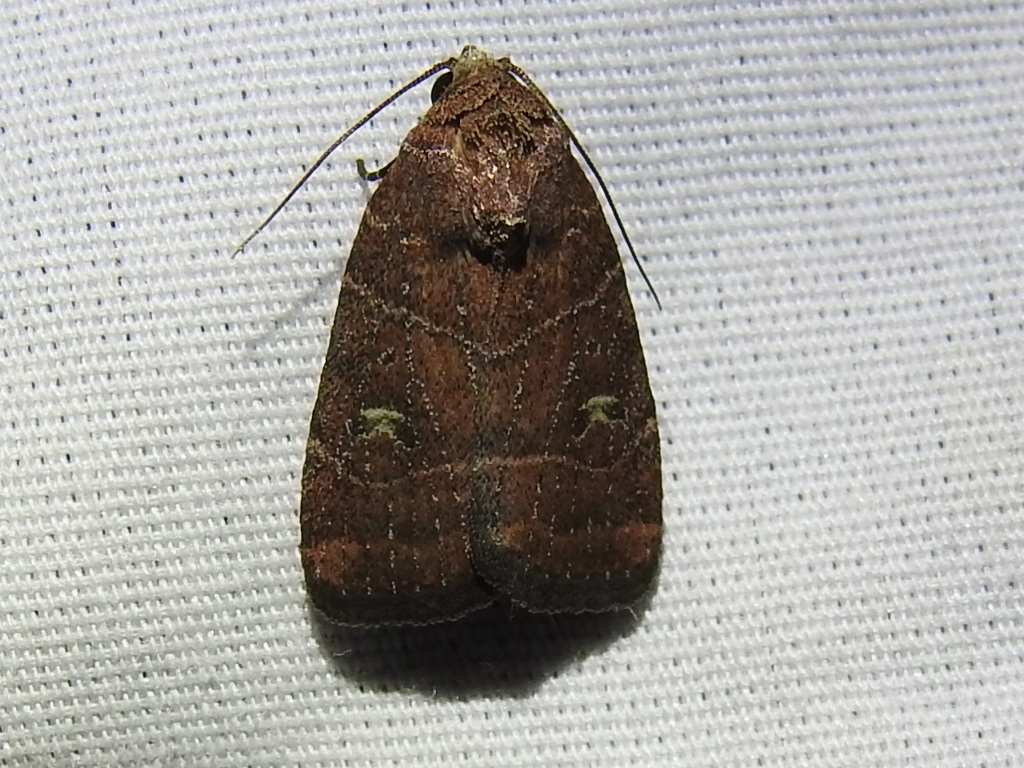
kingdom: Animalia
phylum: Arthropoda
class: Insecta
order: Lepidoptera
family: Noctuidae
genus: Elaphria
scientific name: Elaphria grata
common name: Grateful midget moth
